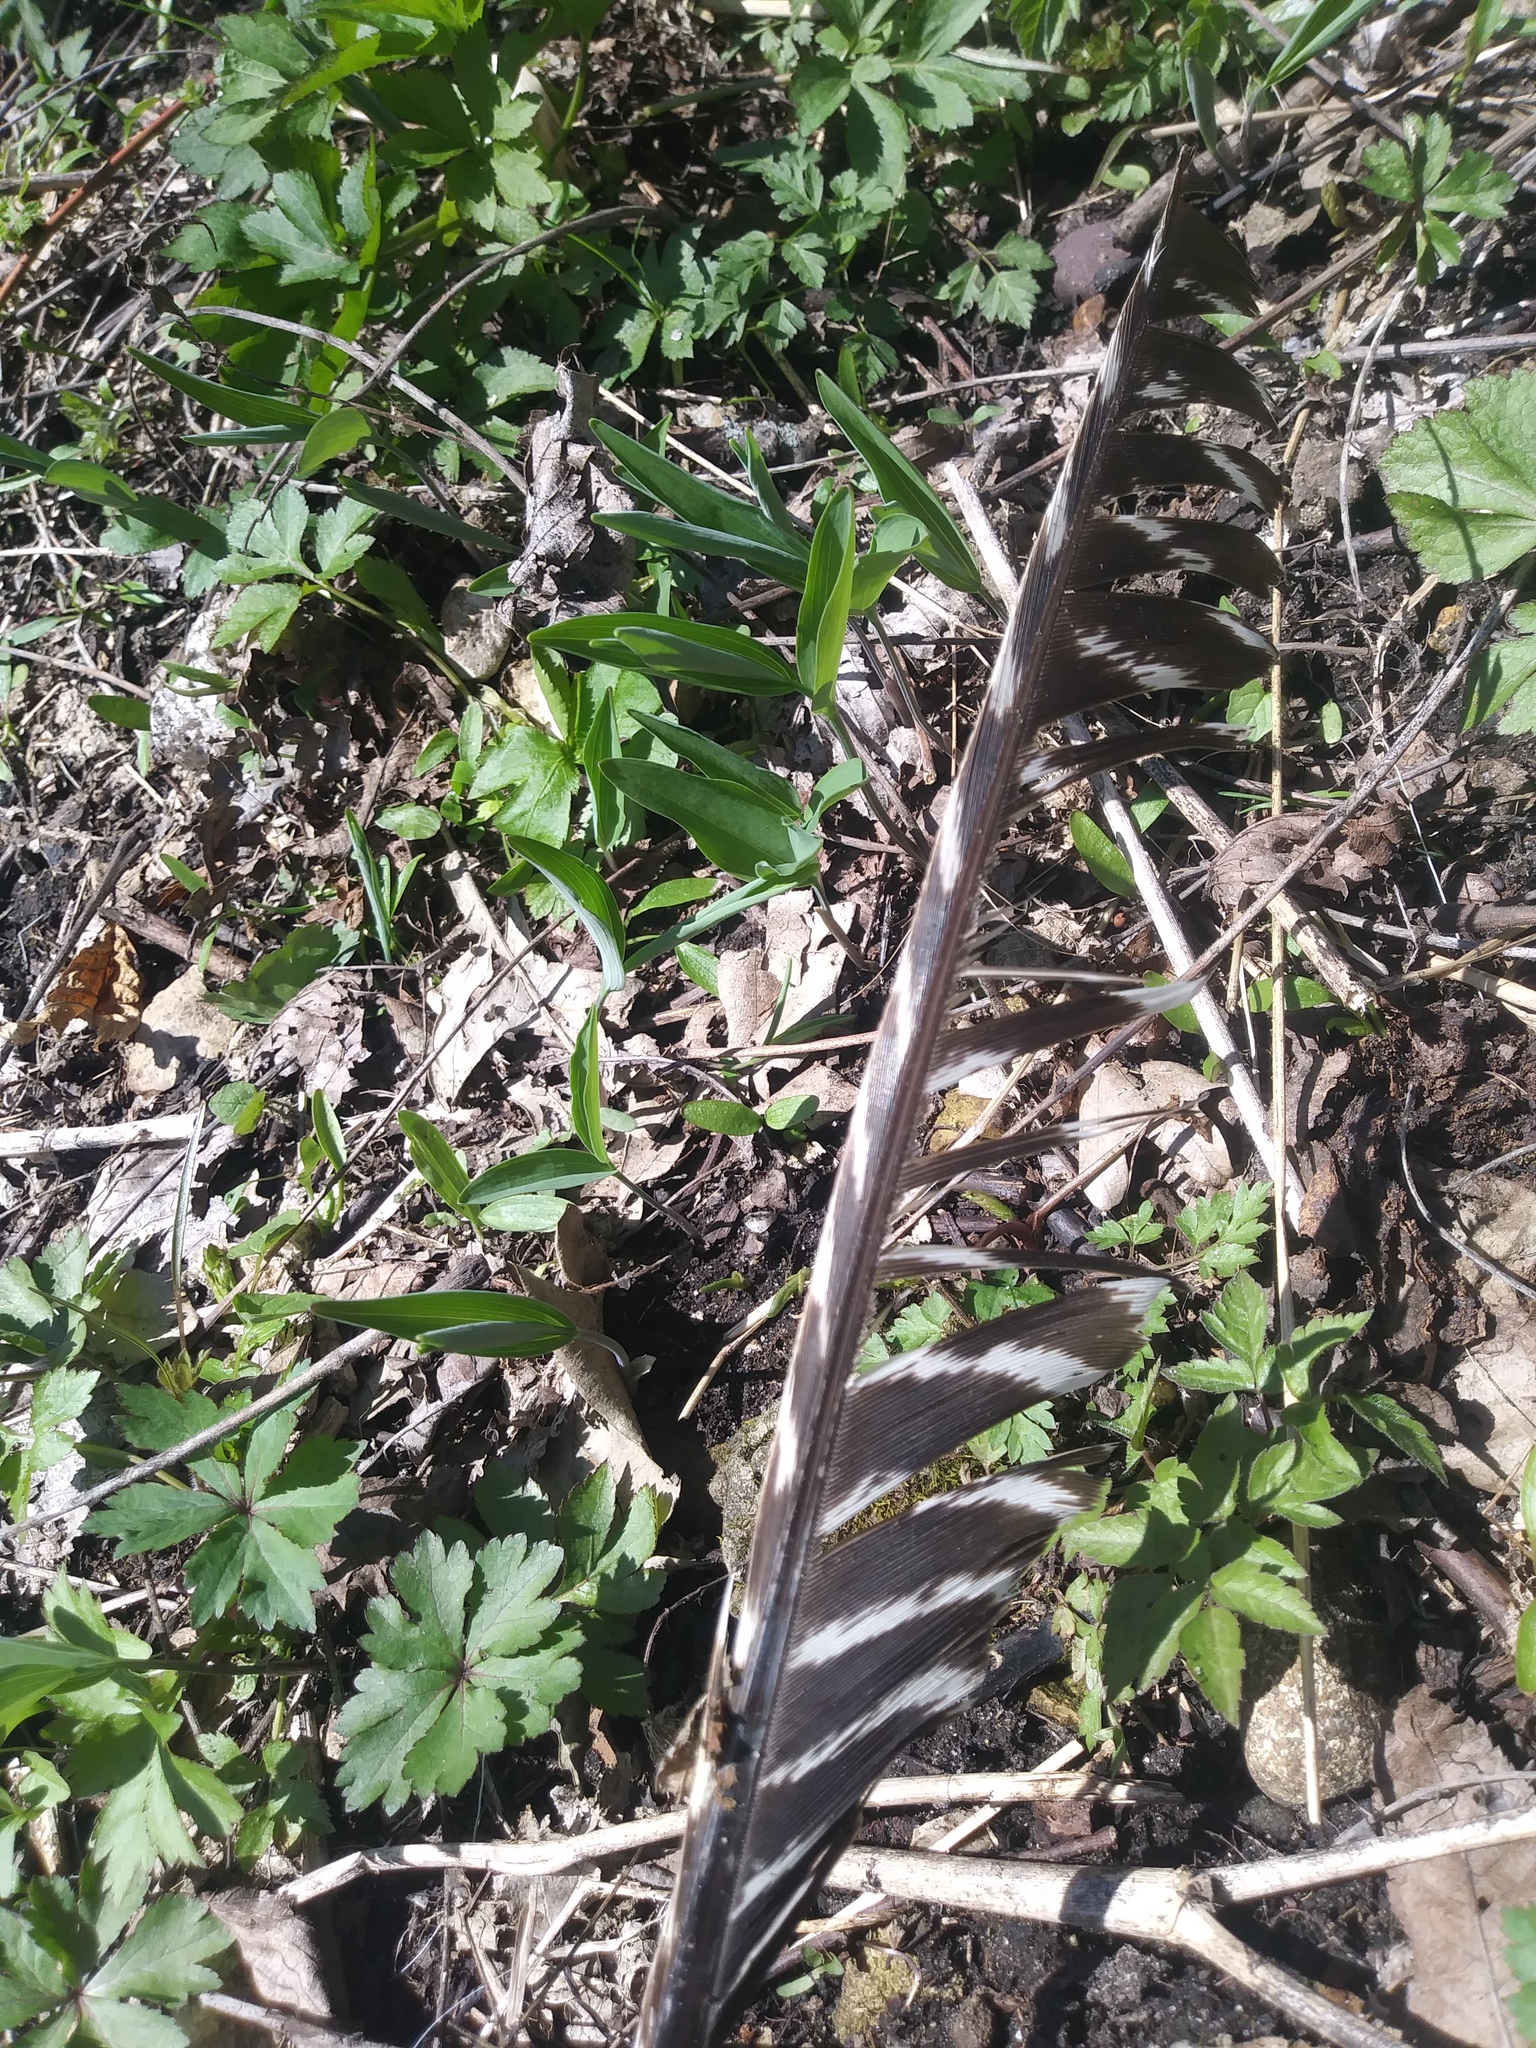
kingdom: Animalia
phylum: Chordata
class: Aves
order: Galliformes
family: Phasianidae
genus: Meleagris
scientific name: Meleagris gallopavo
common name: Wild turkey
